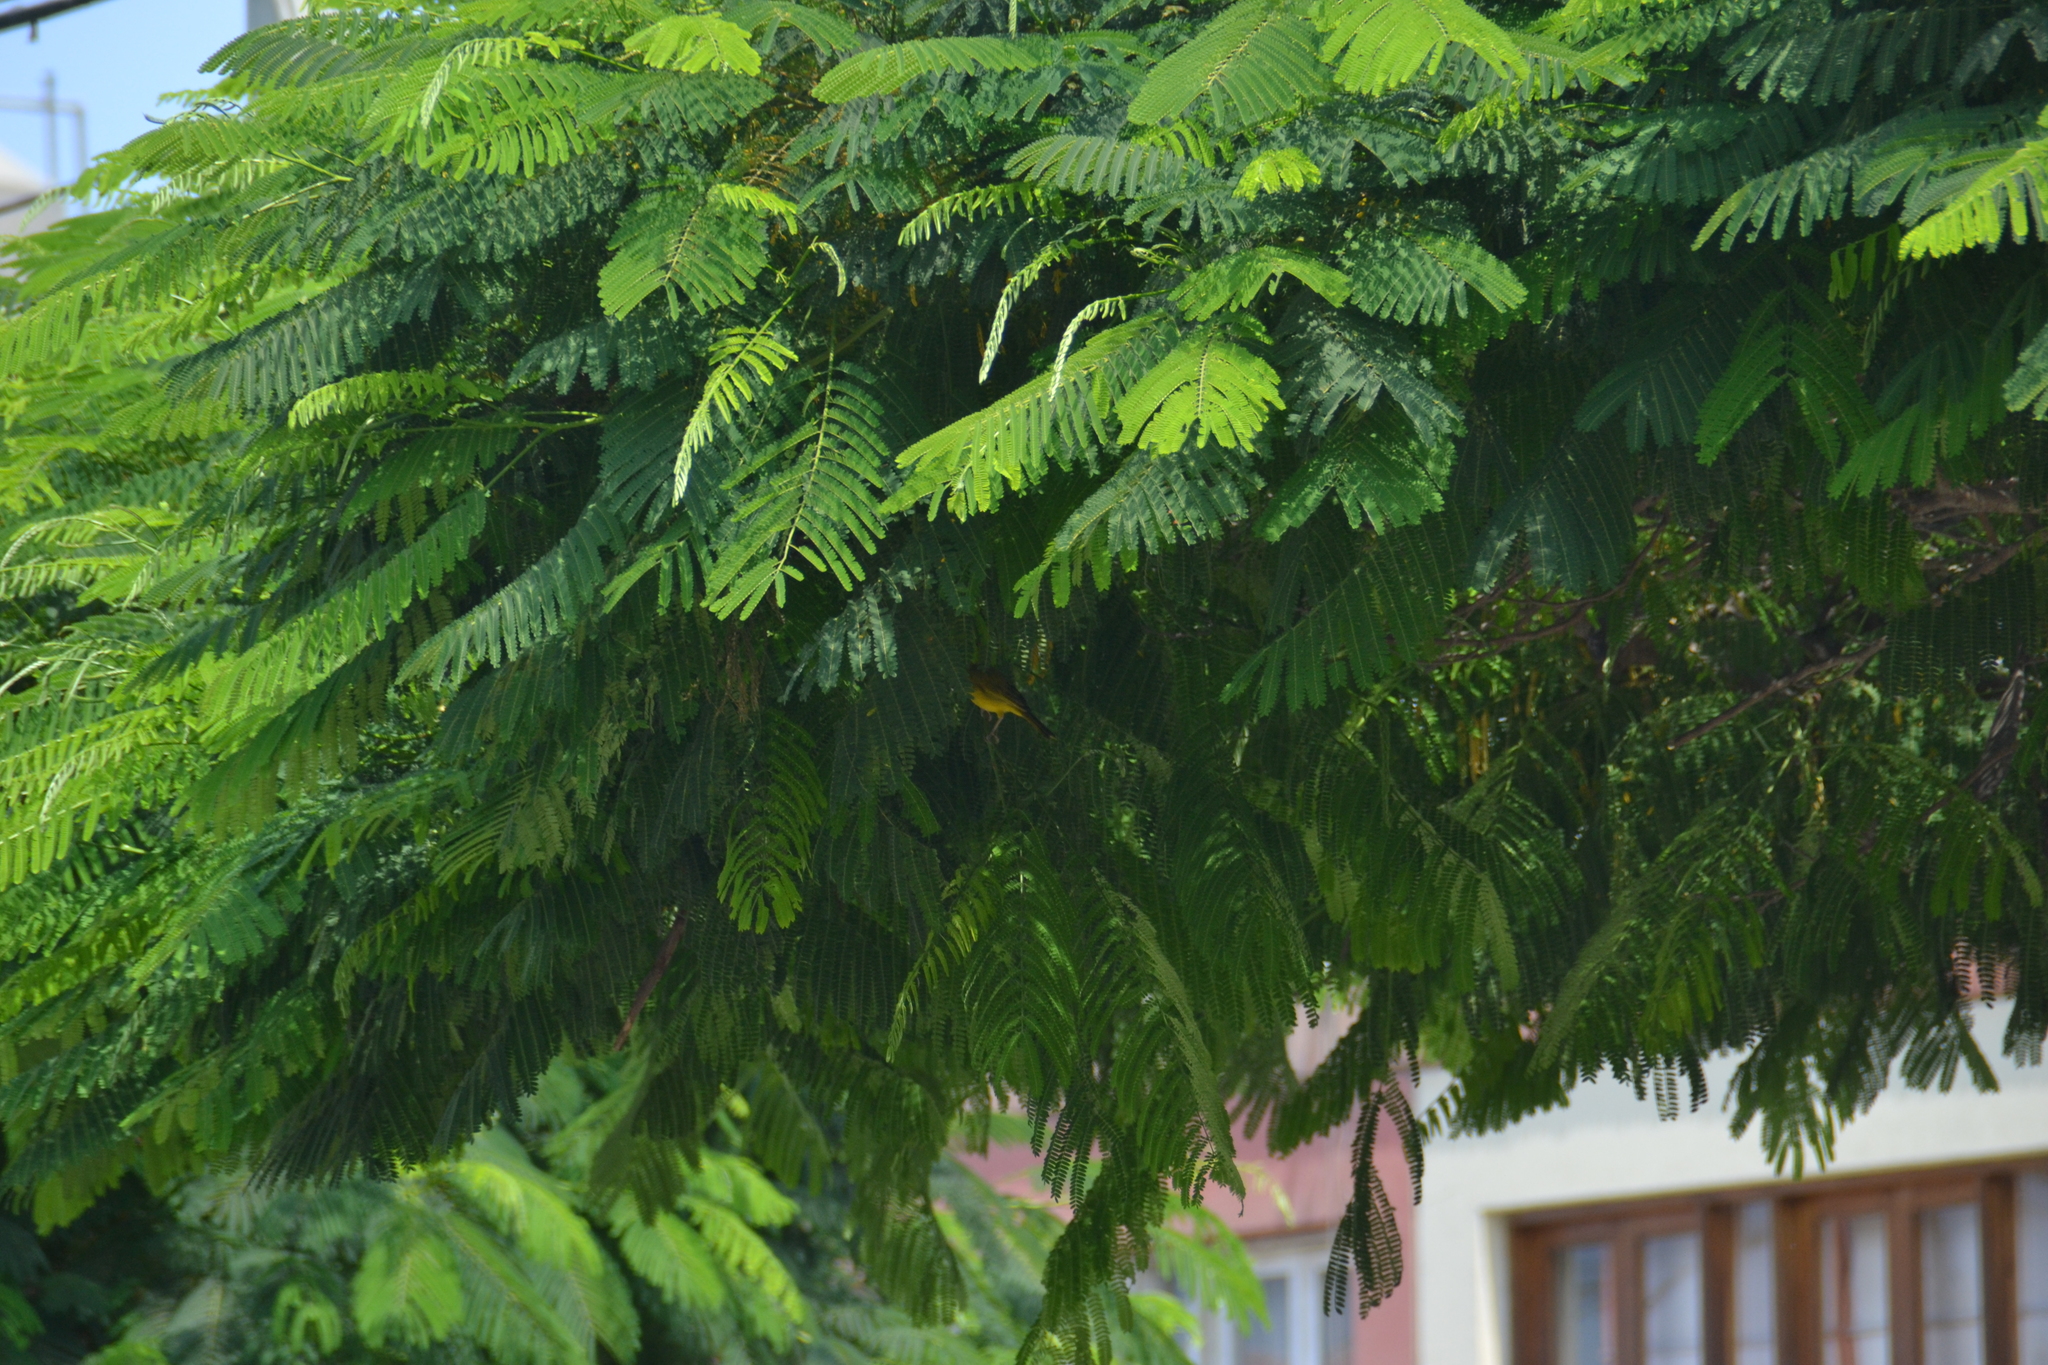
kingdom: Animalia
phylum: Chordata
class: Aves
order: Passeriformes
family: Thraupidae
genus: Sicalis
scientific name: Sicalis flaveola
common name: Saffron finch
